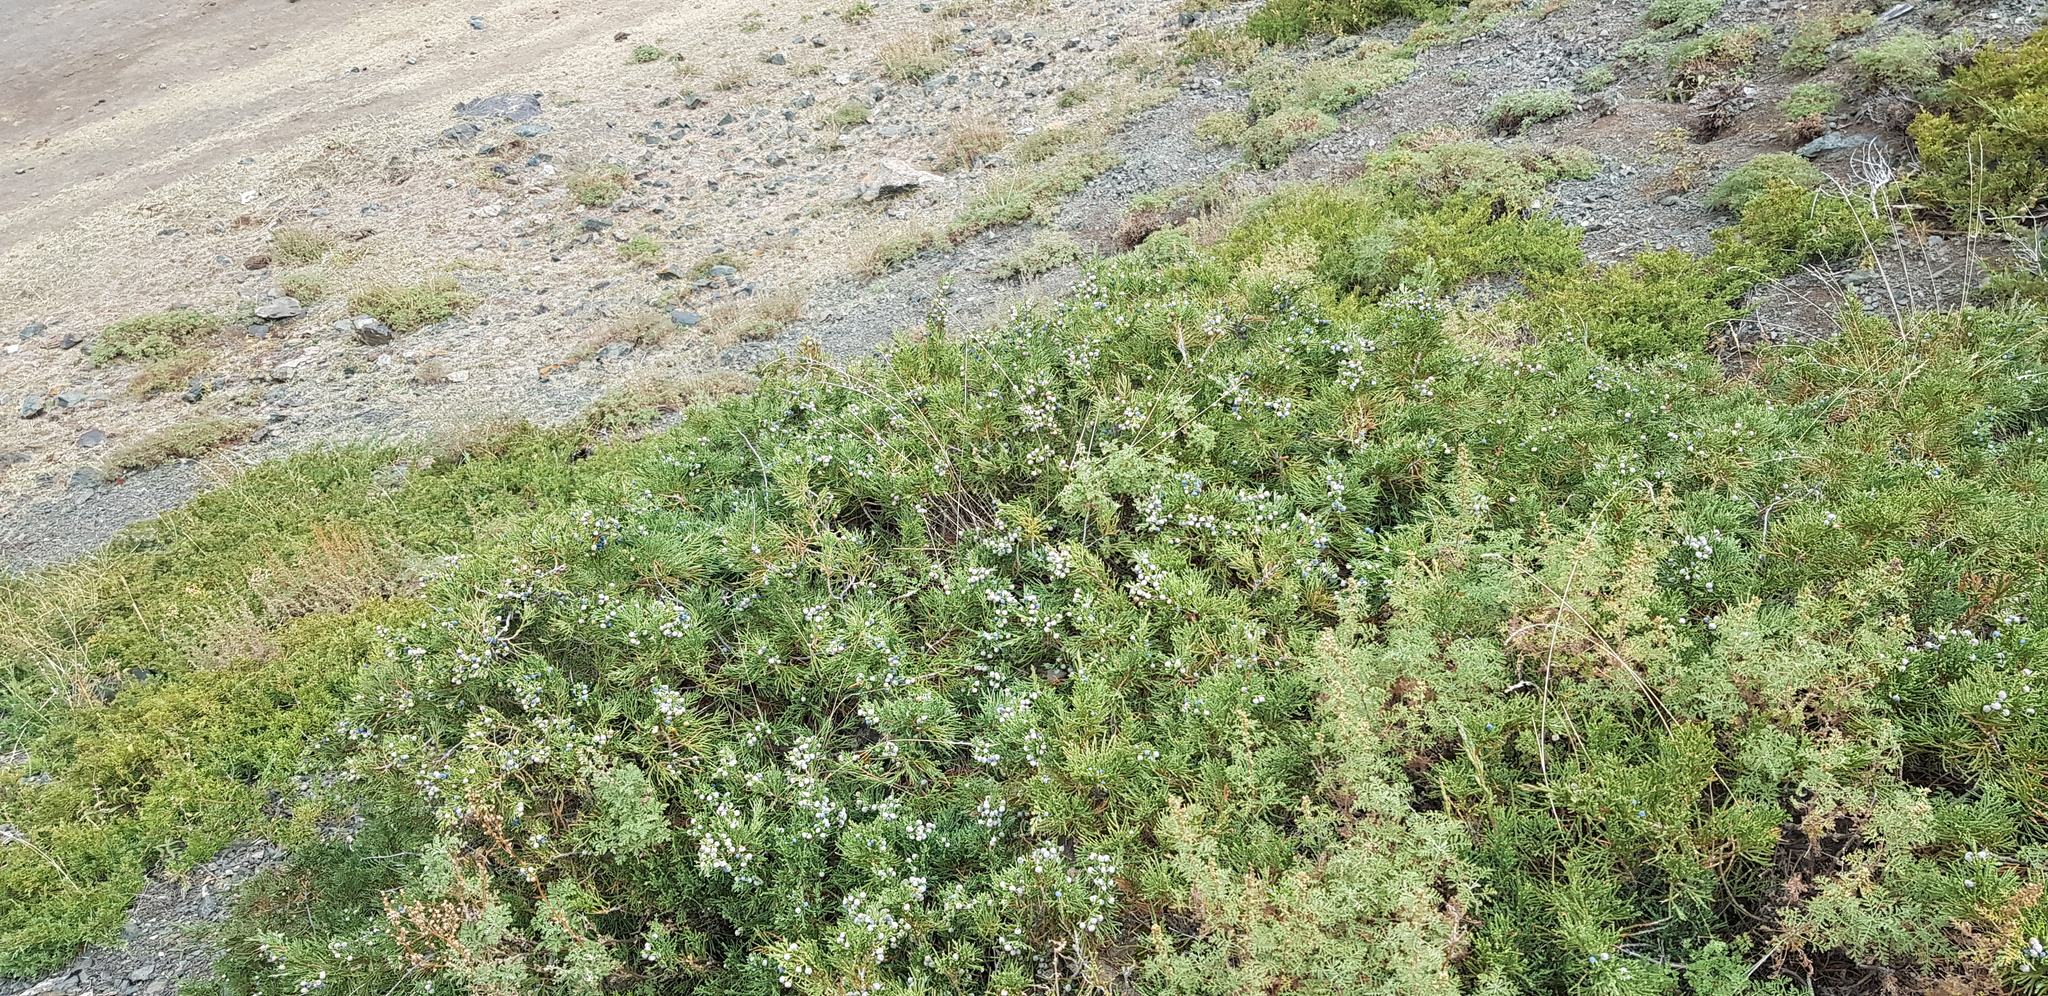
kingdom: Plantae
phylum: Tracheophyta
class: Pinopsida
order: Pinales
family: Cupressaceae
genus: Juniperus
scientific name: Juniperus pseudosabina
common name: Turkestan juniper
